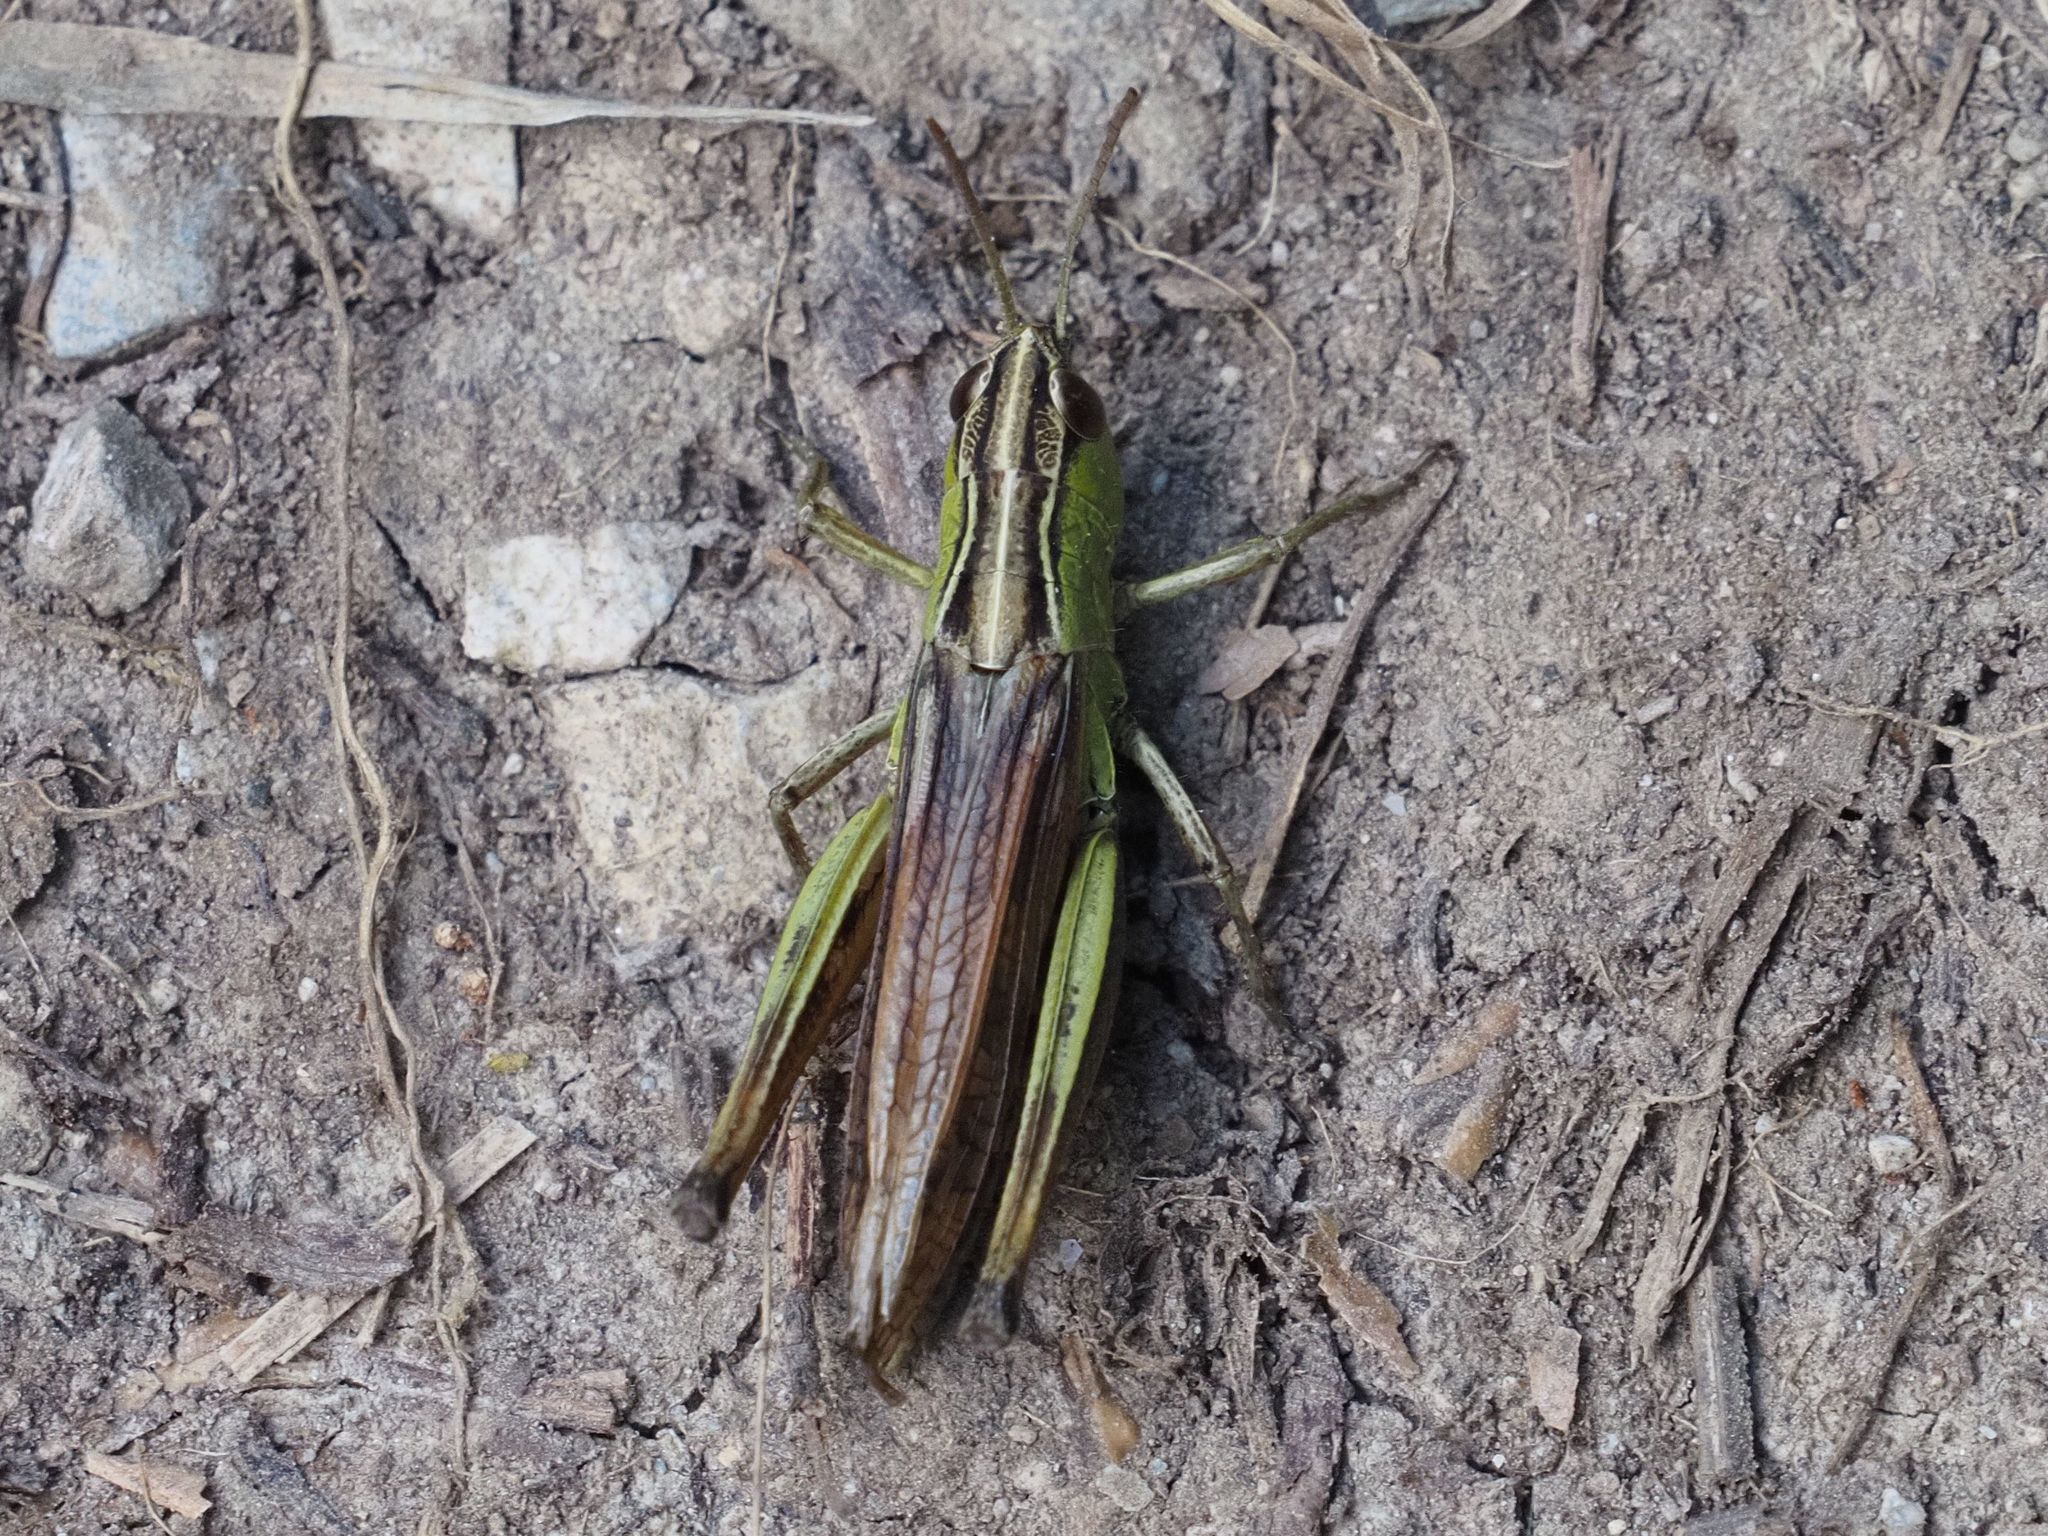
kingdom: Animalia
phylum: Arthropoda
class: Insecta
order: Orthoptera
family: Acrididae
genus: Pseudochorthippus
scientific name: Pseudochorthippus parallelus
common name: Meadow grasshopper
